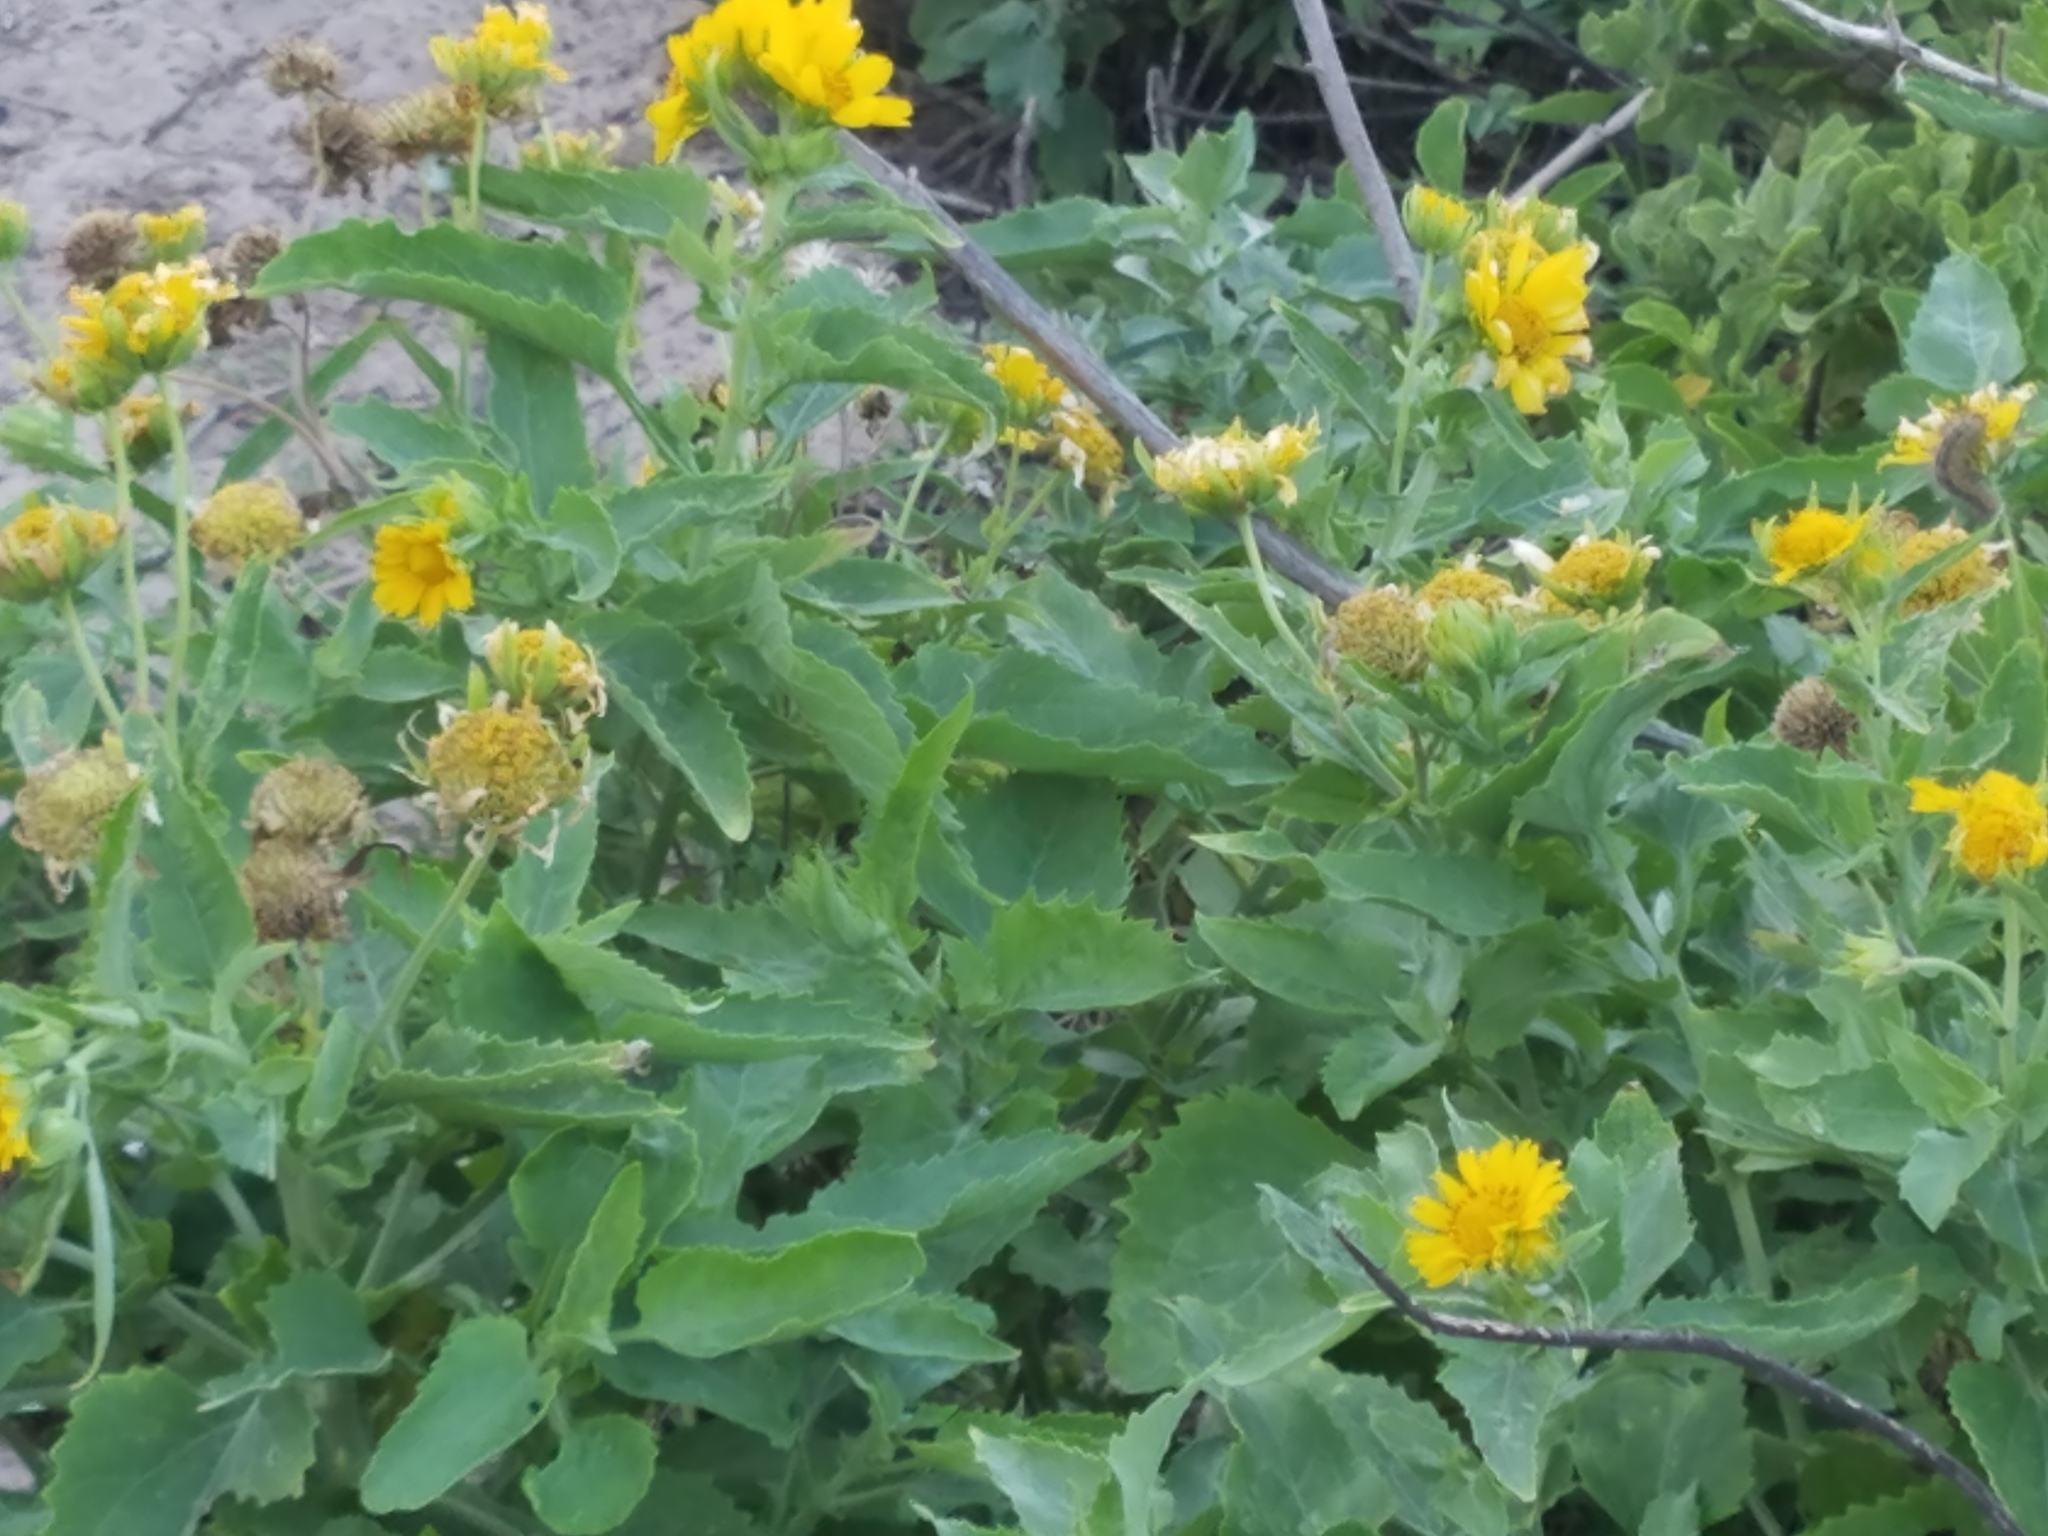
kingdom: Plantae
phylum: Tracheophyta
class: Magnoliopsida
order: Asterales
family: Asteraceae
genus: Verbesina
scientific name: Verbesina encelioides
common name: Golden crownbeard
